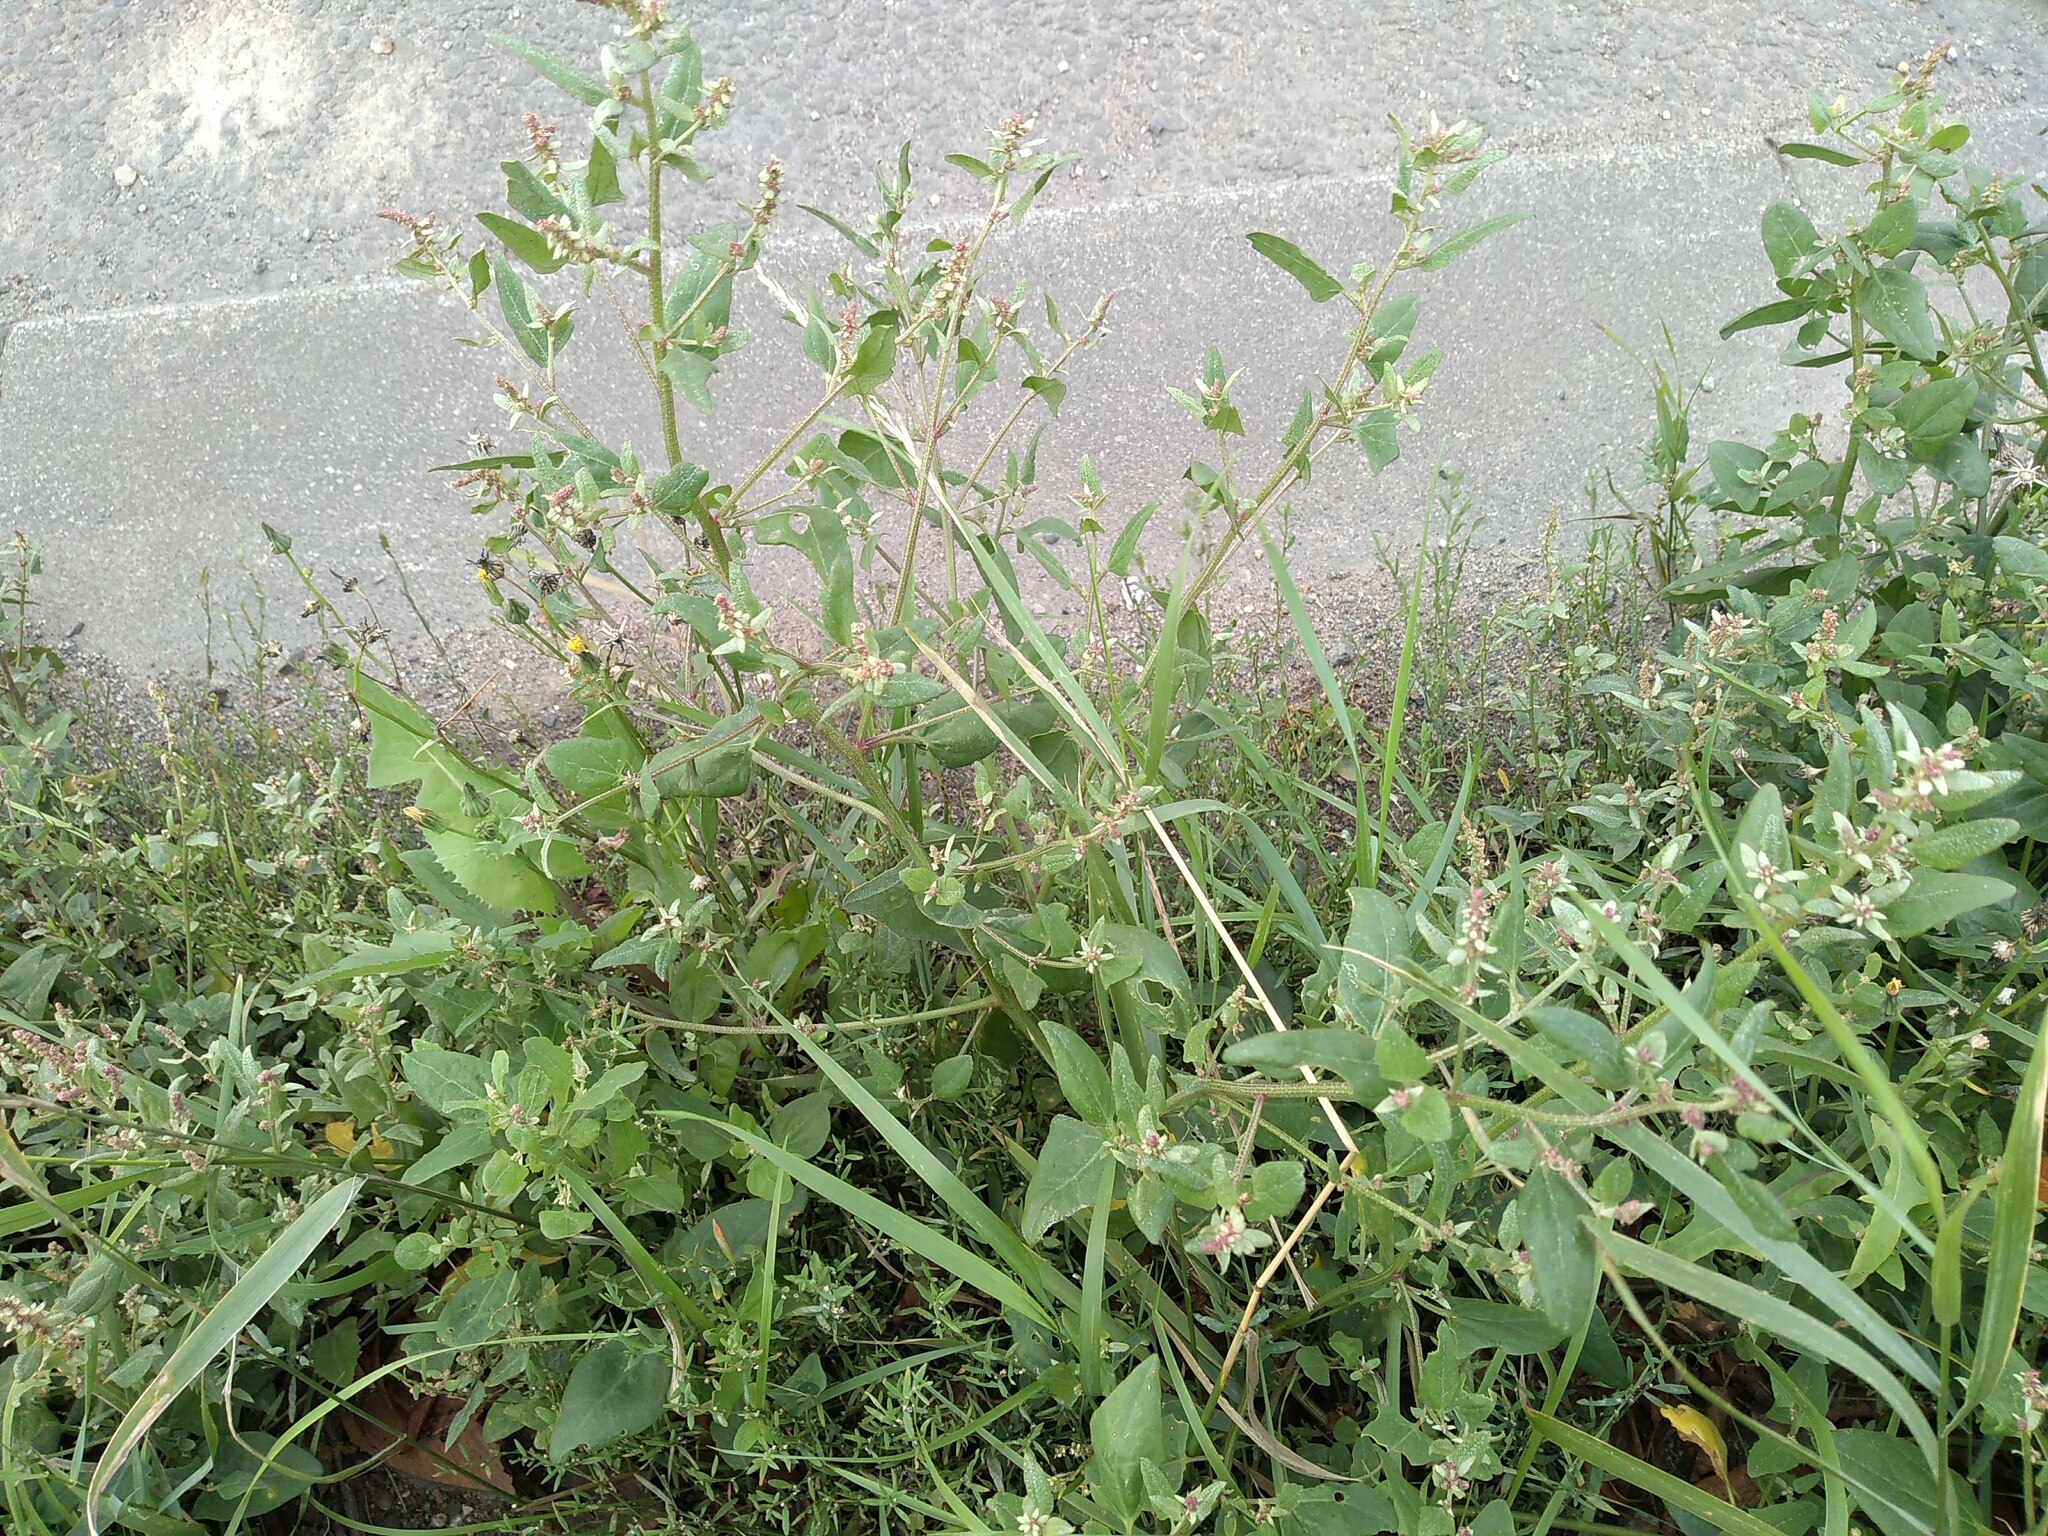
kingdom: Plantae
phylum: Tracheophyta
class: Magnoliopsida
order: Caryophyllales
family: Amaranthaceae
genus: Atriplex
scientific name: Atriplex prostrata
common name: Spear-leaved orache
